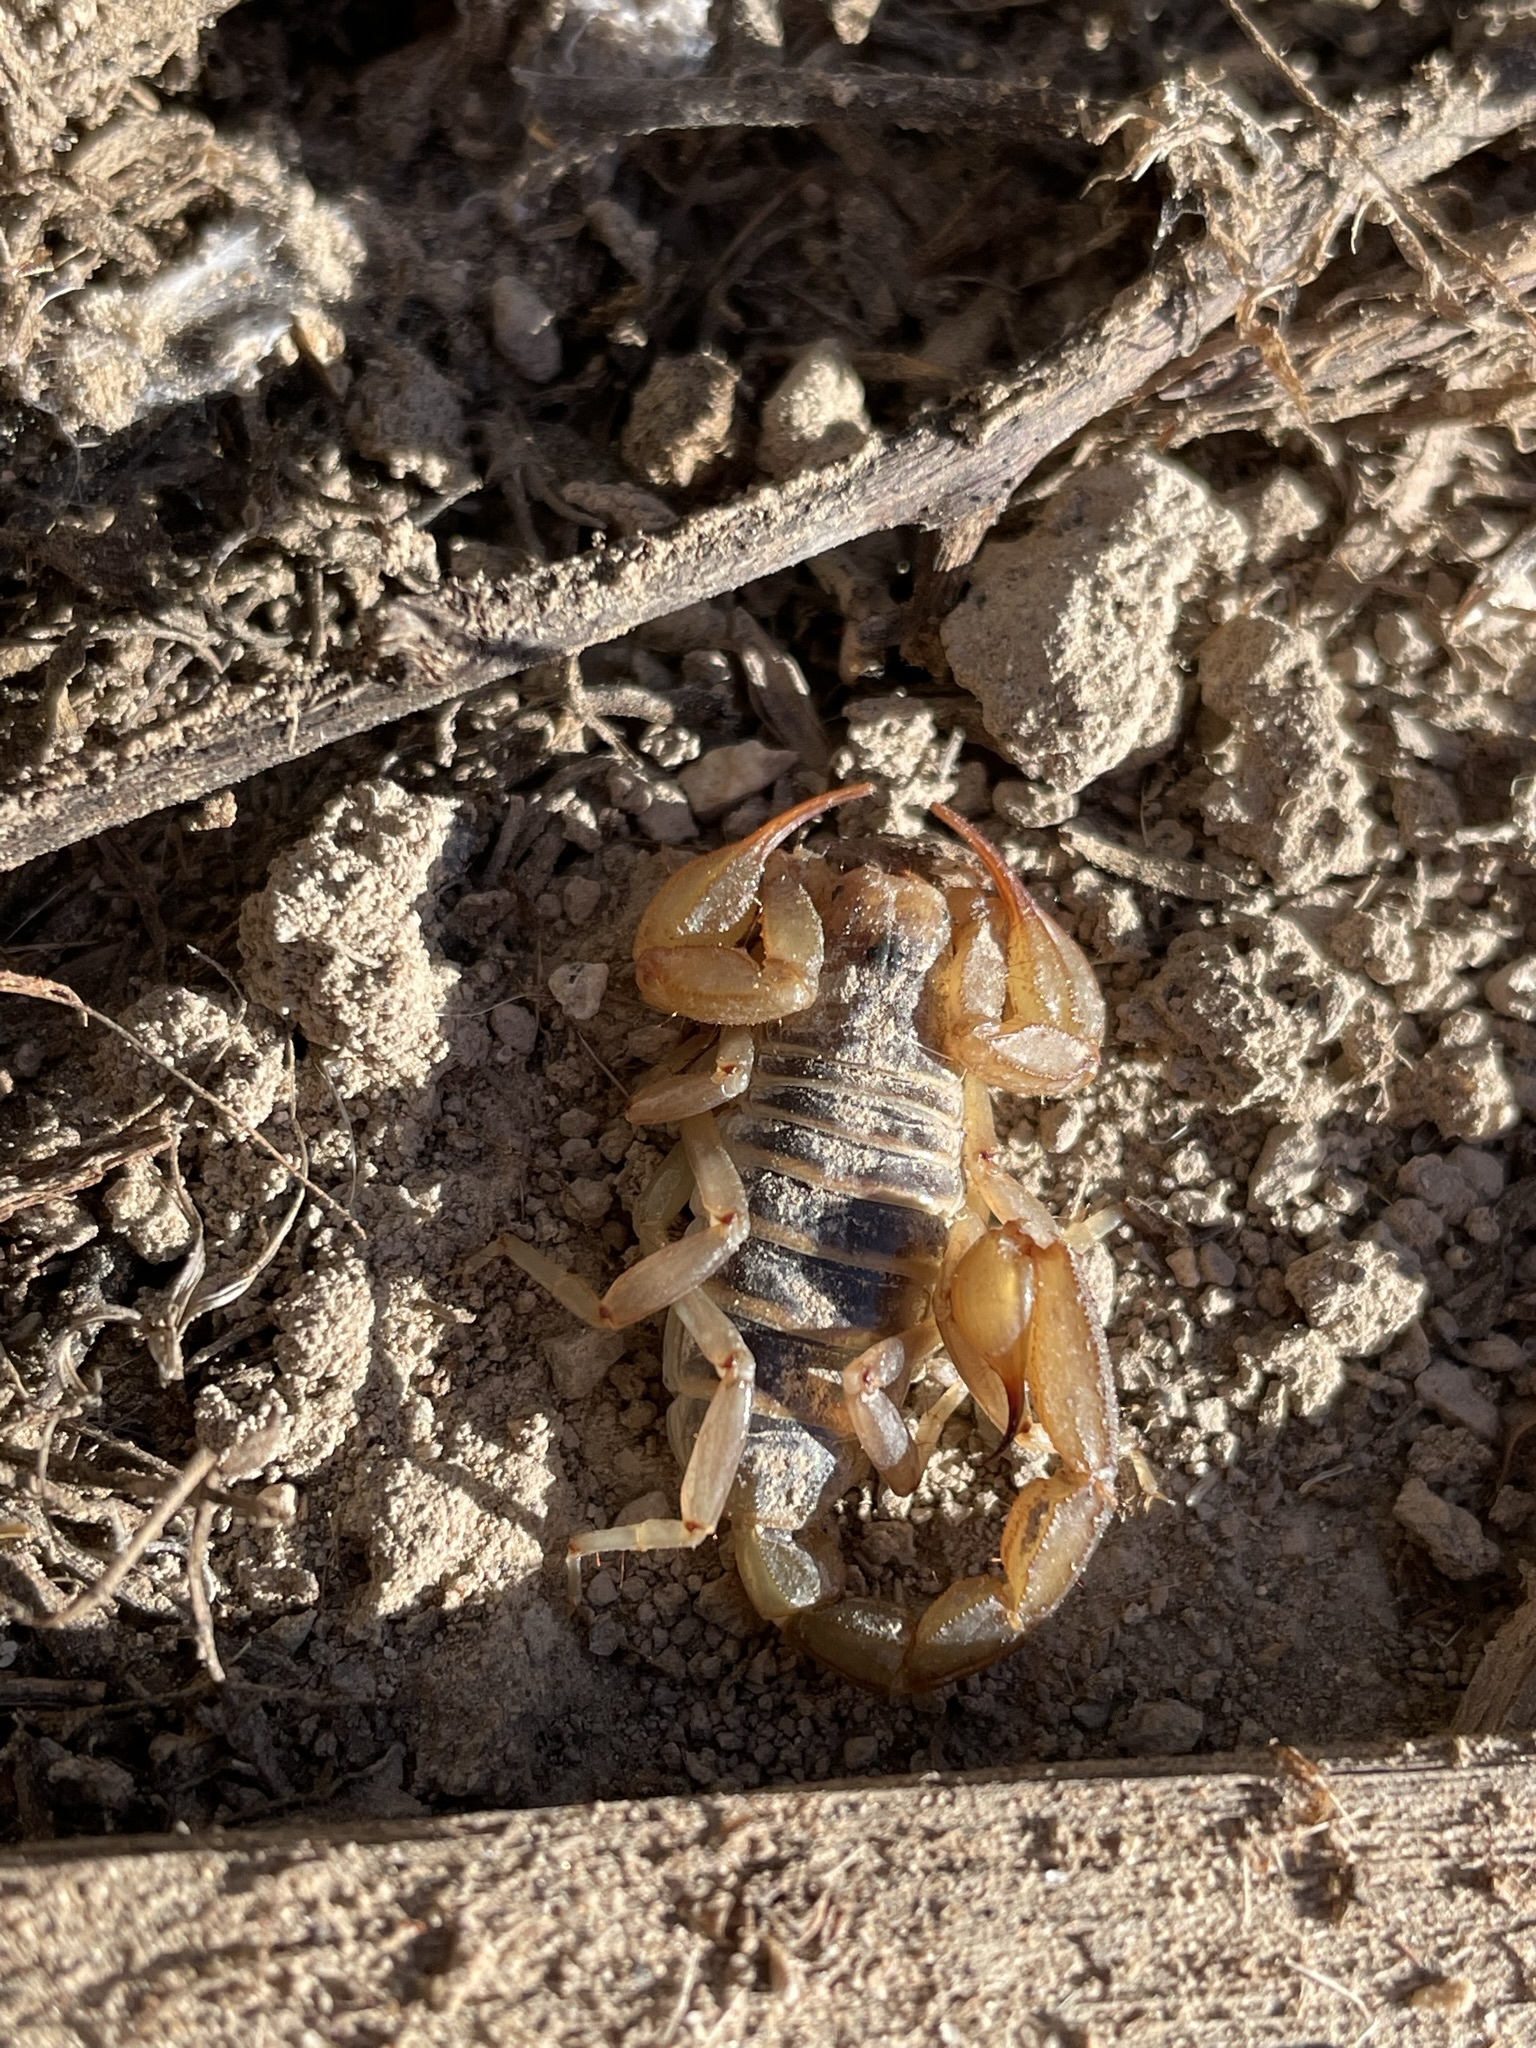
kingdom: Animalia
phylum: Arthropoda
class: Arachnida
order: Scorpiones
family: Vaejovidae
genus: Paruroctonus
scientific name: Paruroctonus boreus
